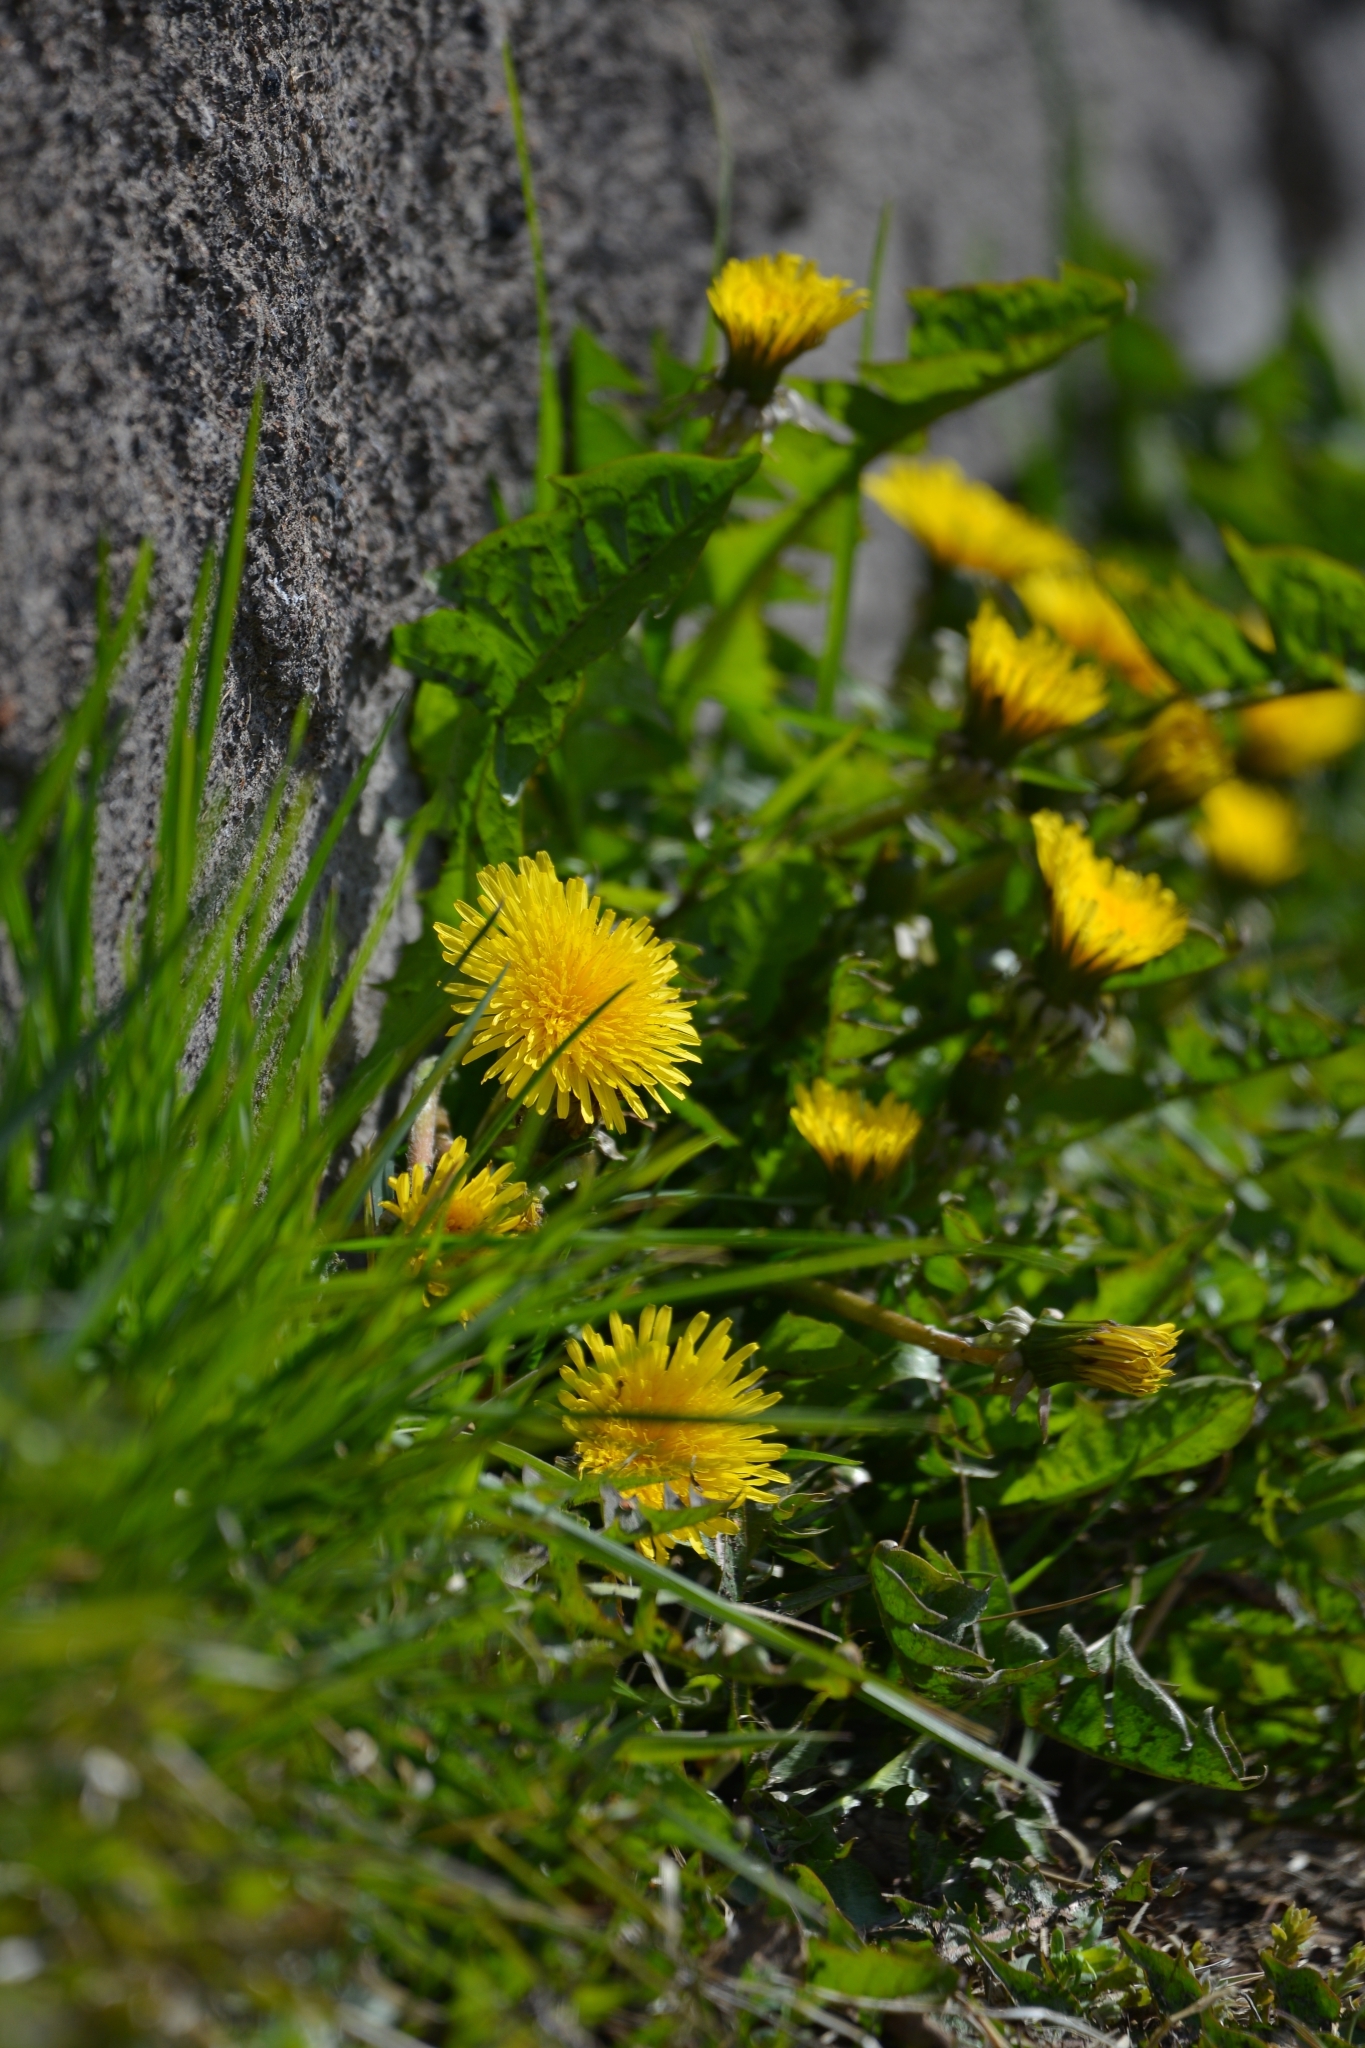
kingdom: Plantae
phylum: Tracheophyta
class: Magnoliopsida
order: Asterales
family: Asteraceae
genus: Taraxacum
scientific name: Taraxacum officinale
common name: Common dandelion
